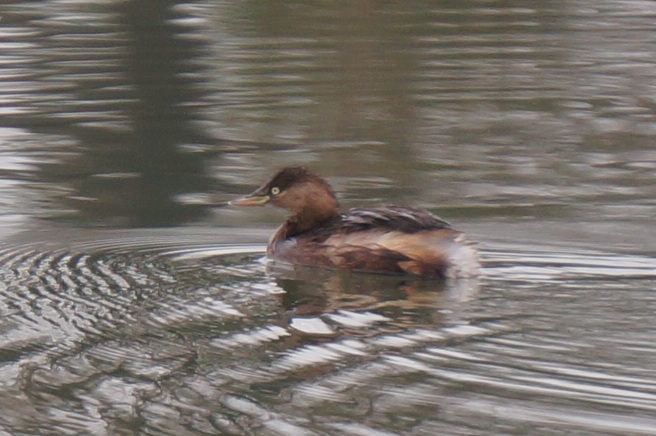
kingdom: Animalia
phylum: Chordata
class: Aves
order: Podicipediformes
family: Podicipedidae
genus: Tachybaptus
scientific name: Tachybaptus ruficollis
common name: Little grebe
